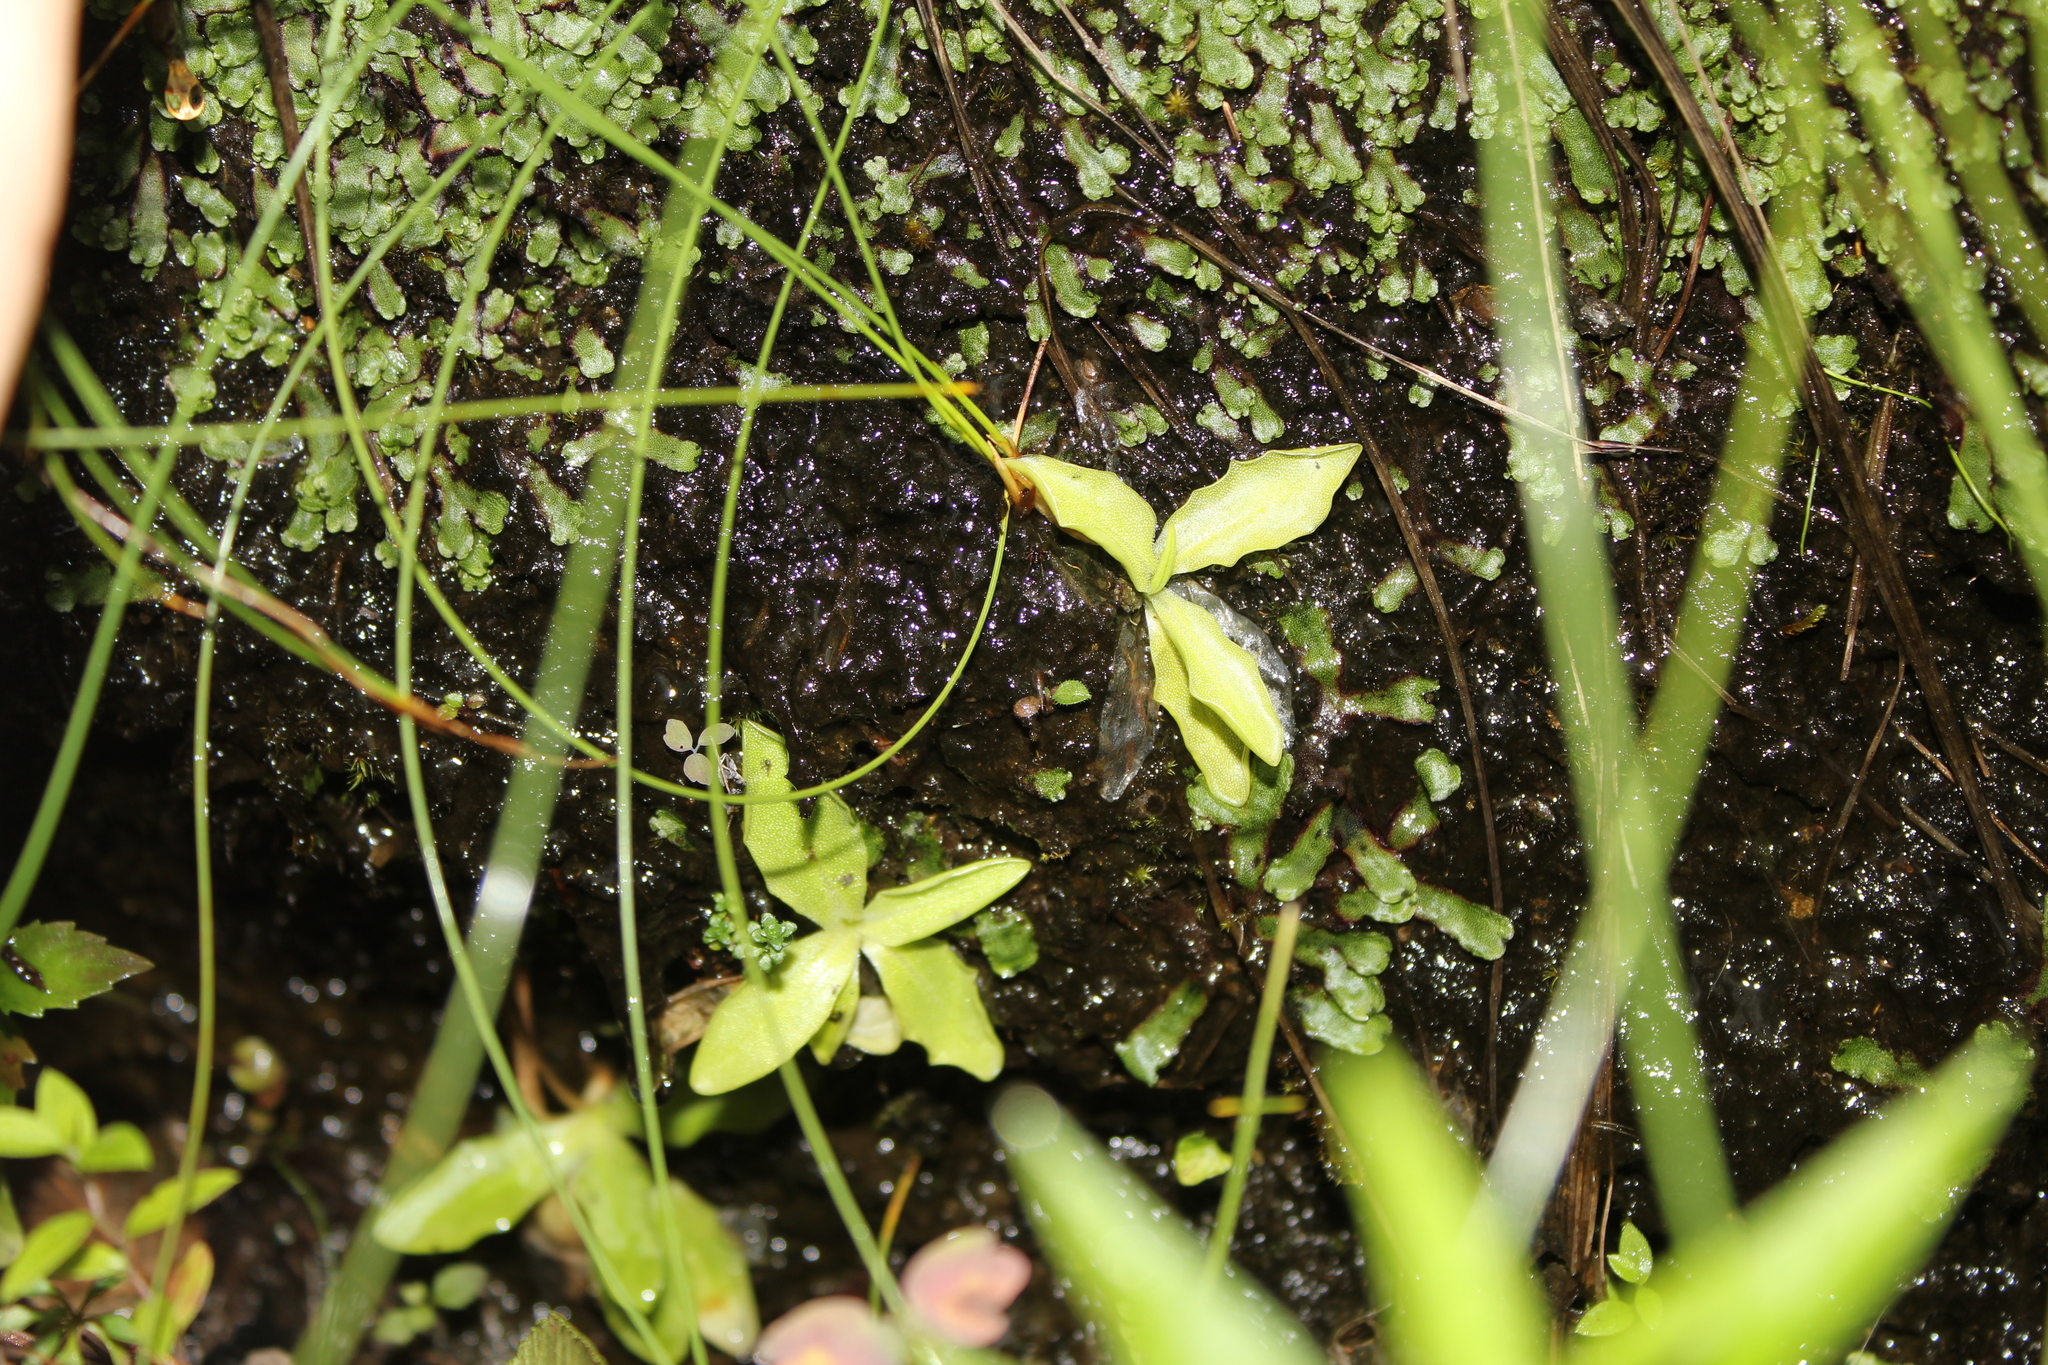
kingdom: Plantae
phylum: Tracheophyta
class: Magnoliopsida
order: Lamiales
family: Lentibulariaceae
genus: Pinguicula
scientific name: Pinguicula vulgaris
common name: Common butterwort
